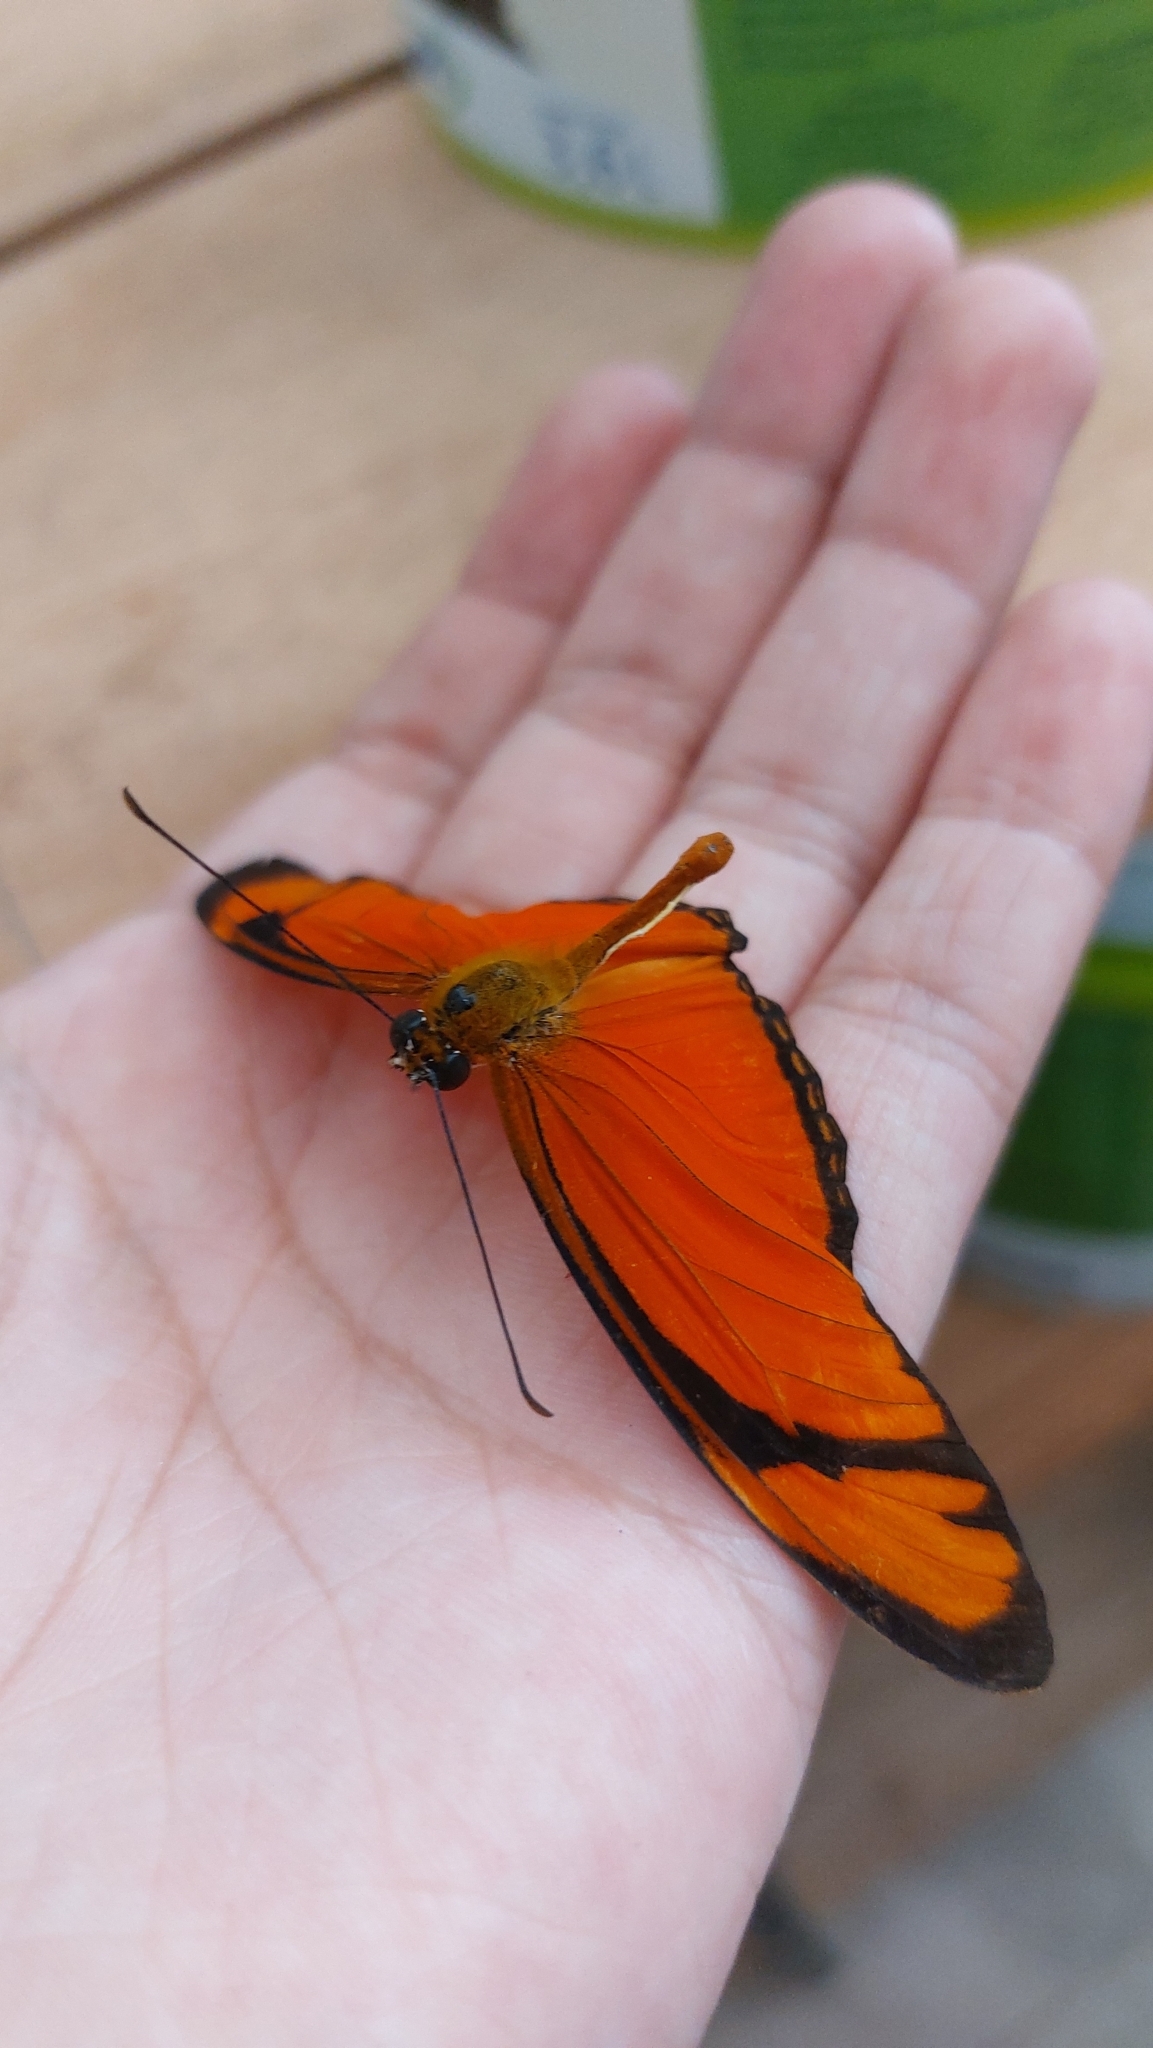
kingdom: Animalia
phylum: Arthropoda
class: Insecta
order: Lepidoptera
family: Nymphalidae
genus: Dryas
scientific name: Dryas iulia
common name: Flambeau
